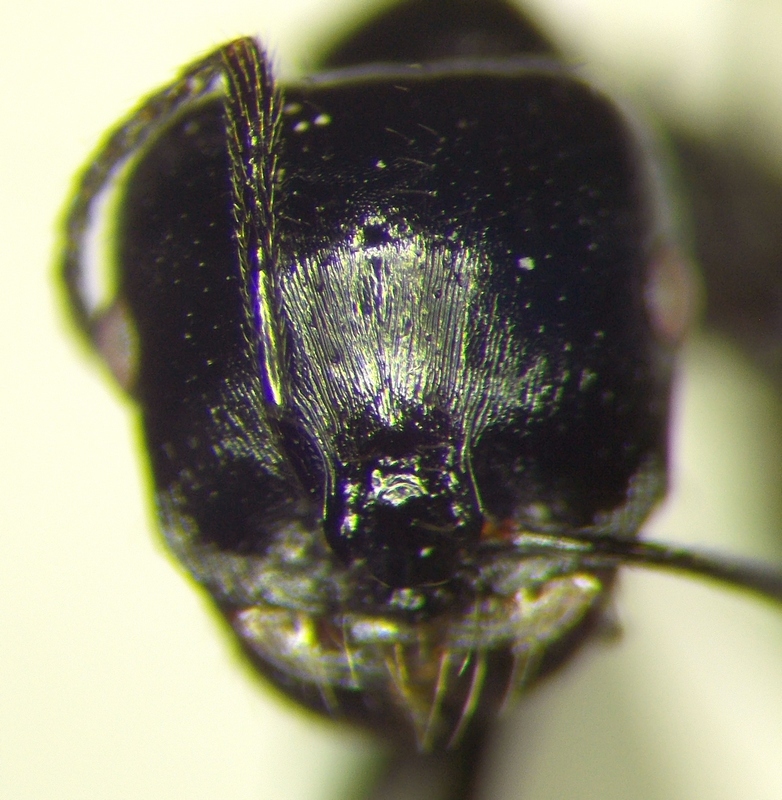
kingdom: Animalia
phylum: Arthropoda
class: Insecta
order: Hymenoptera
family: Formicidae
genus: Messor
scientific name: Messor pergandei
